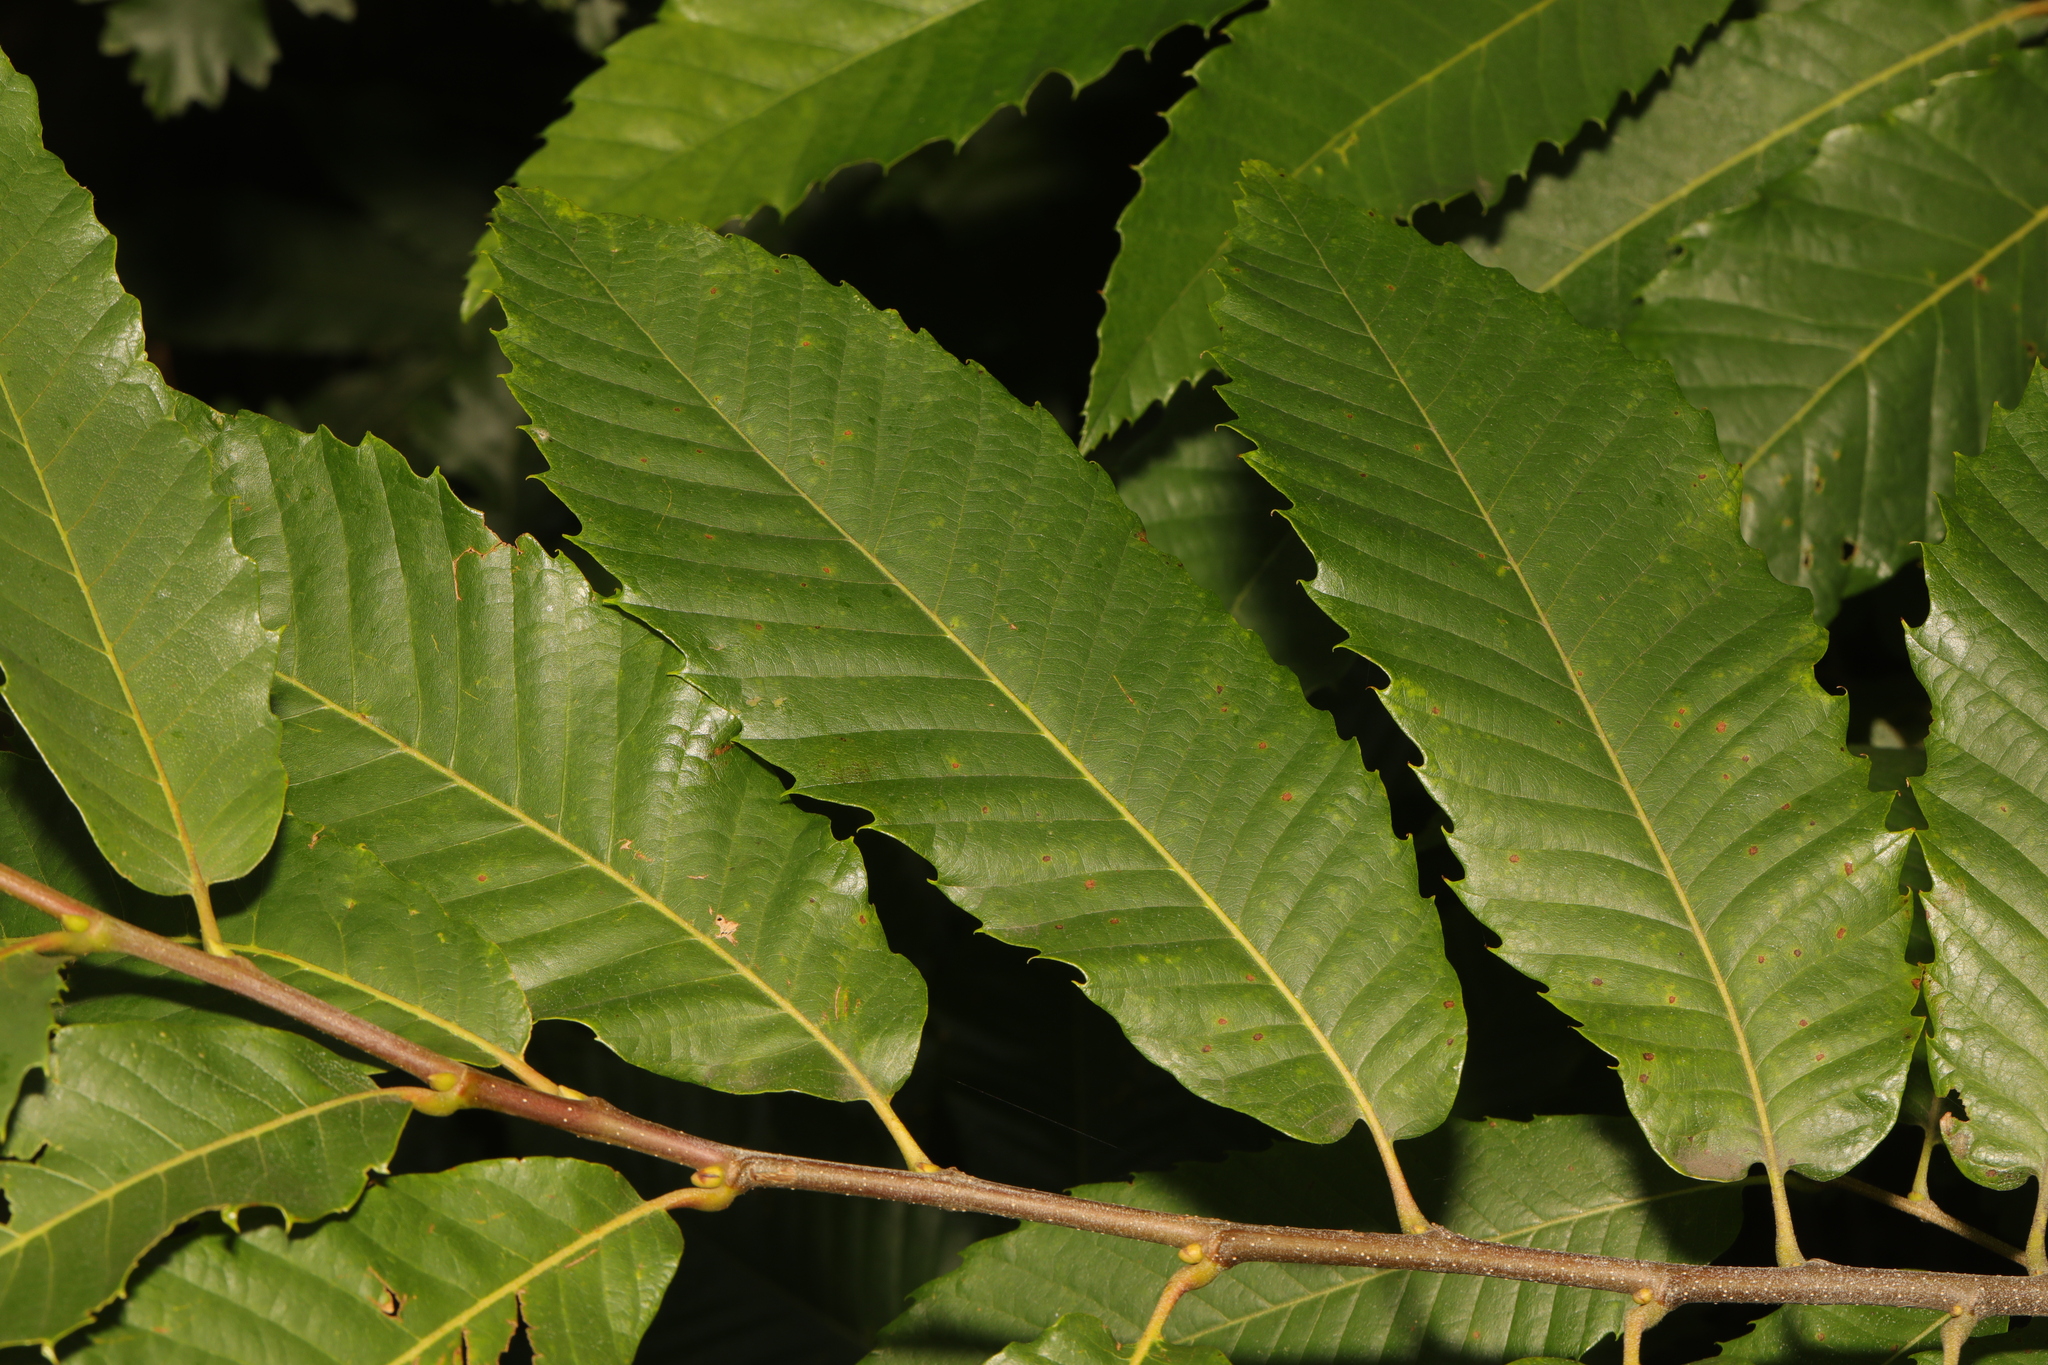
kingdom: Plantae
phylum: Tracheophyta
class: Magnoliopsida
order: Fagales
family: Fagaceae
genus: Castanea
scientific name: Castanea sativa
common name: Sweet chestnut
